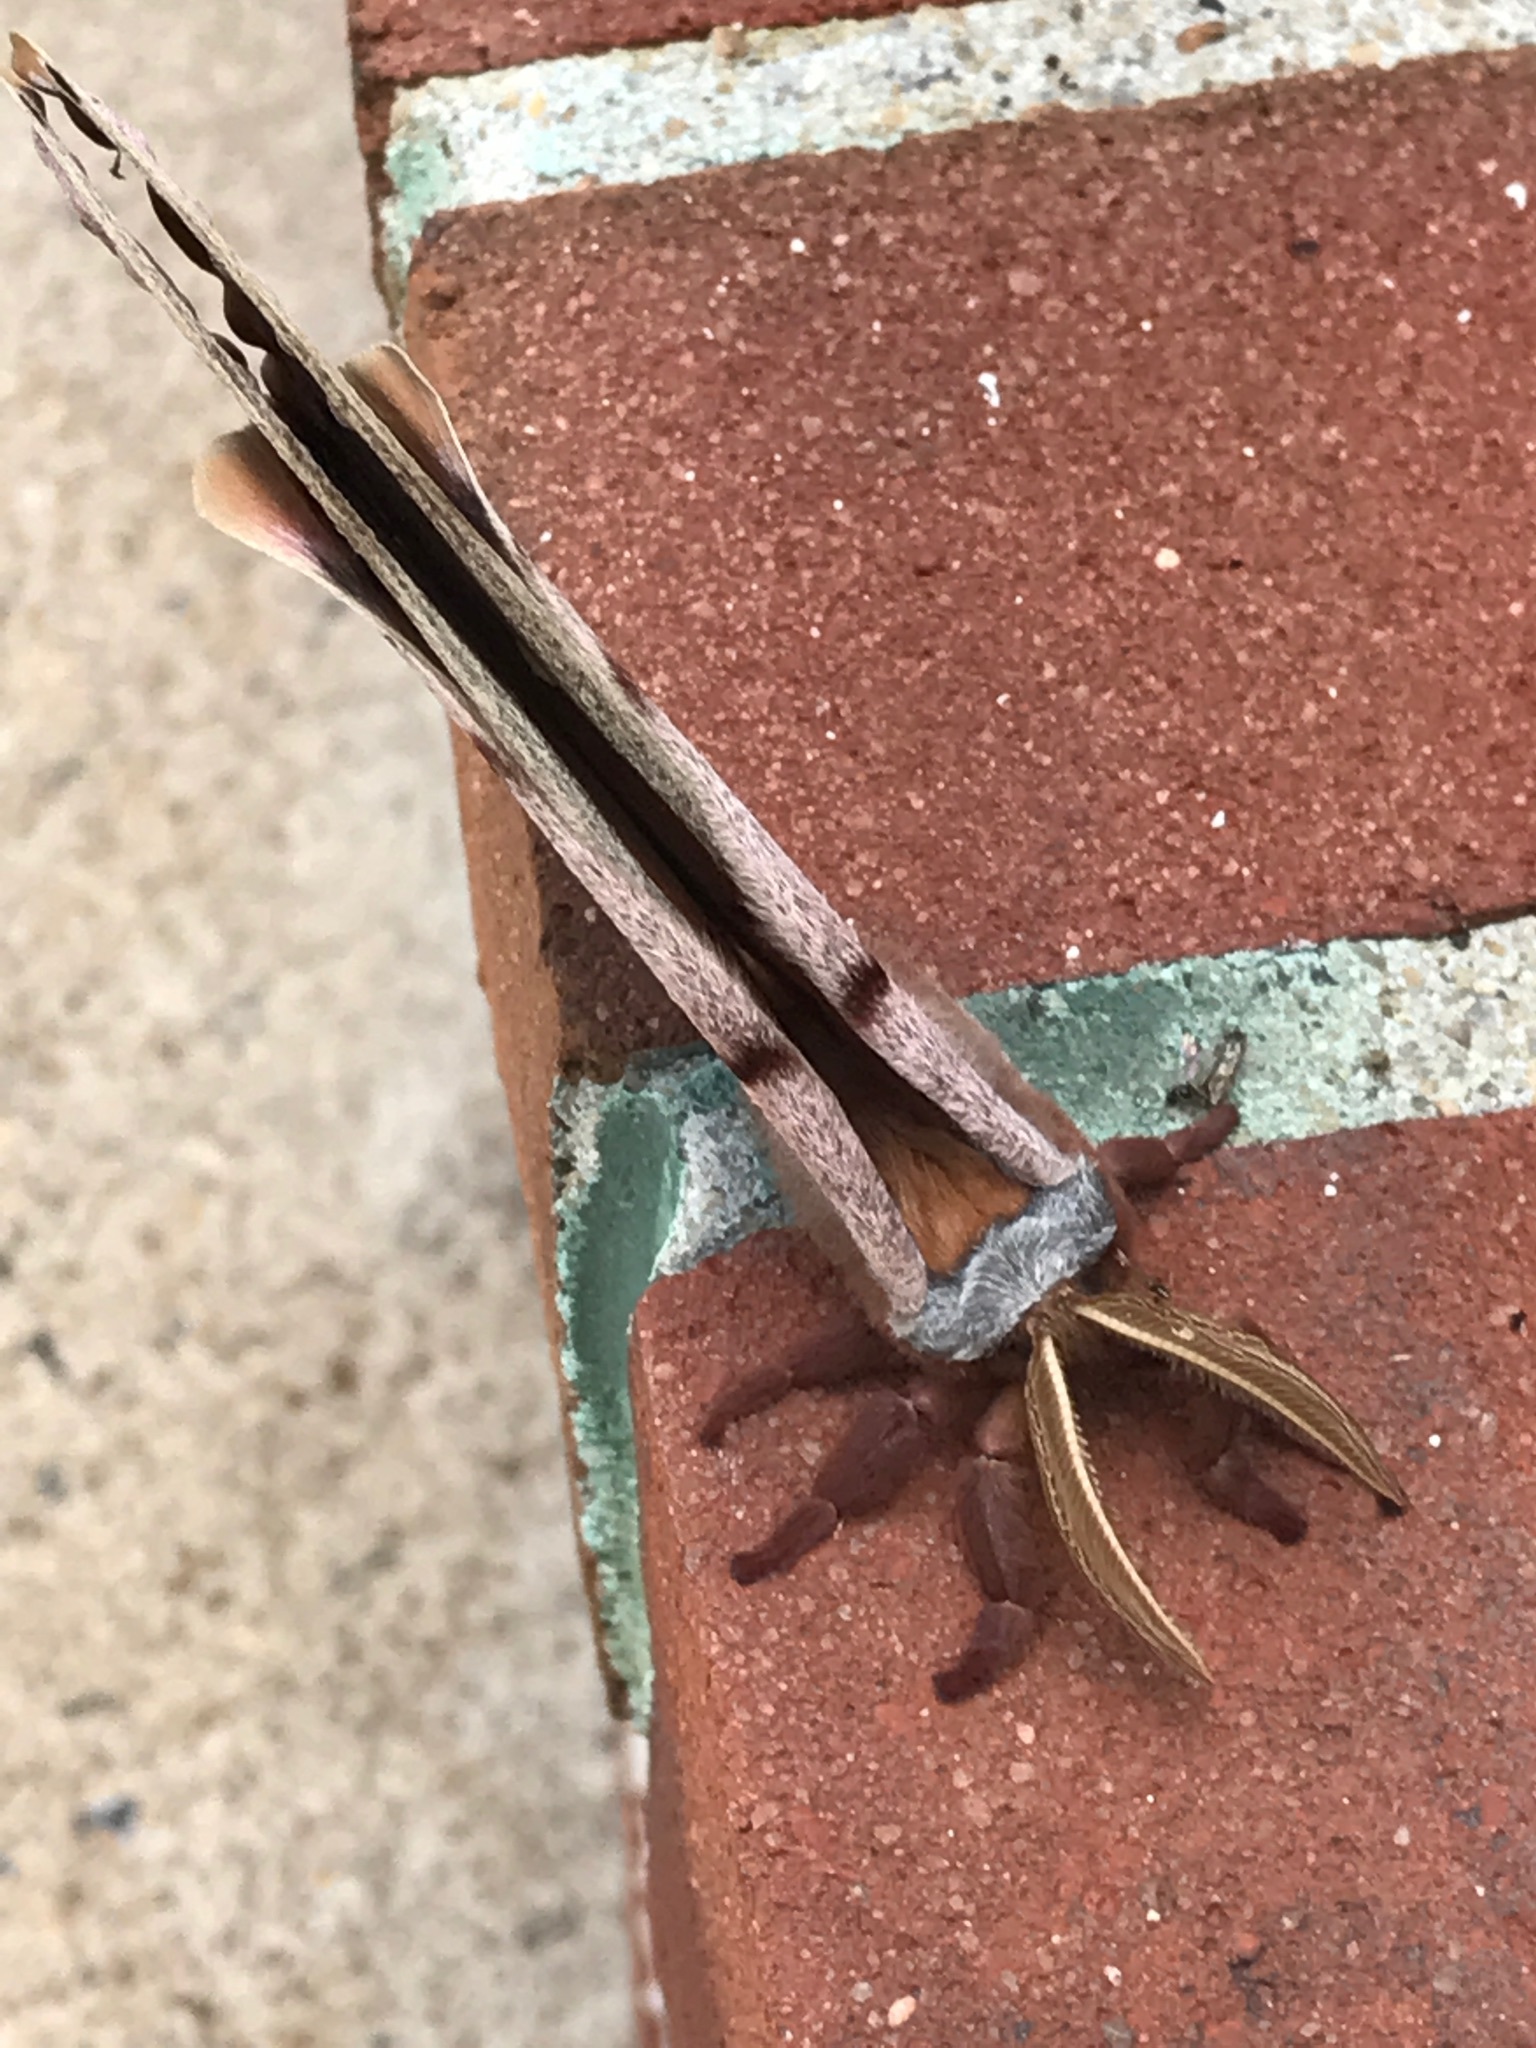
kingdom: Animalia
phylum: Arthropoda
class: Insecta
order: Lepidoptera
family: Saturniidae
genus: Antheraea
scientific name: Antheraea polyphemus
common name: Polyphemus moth
